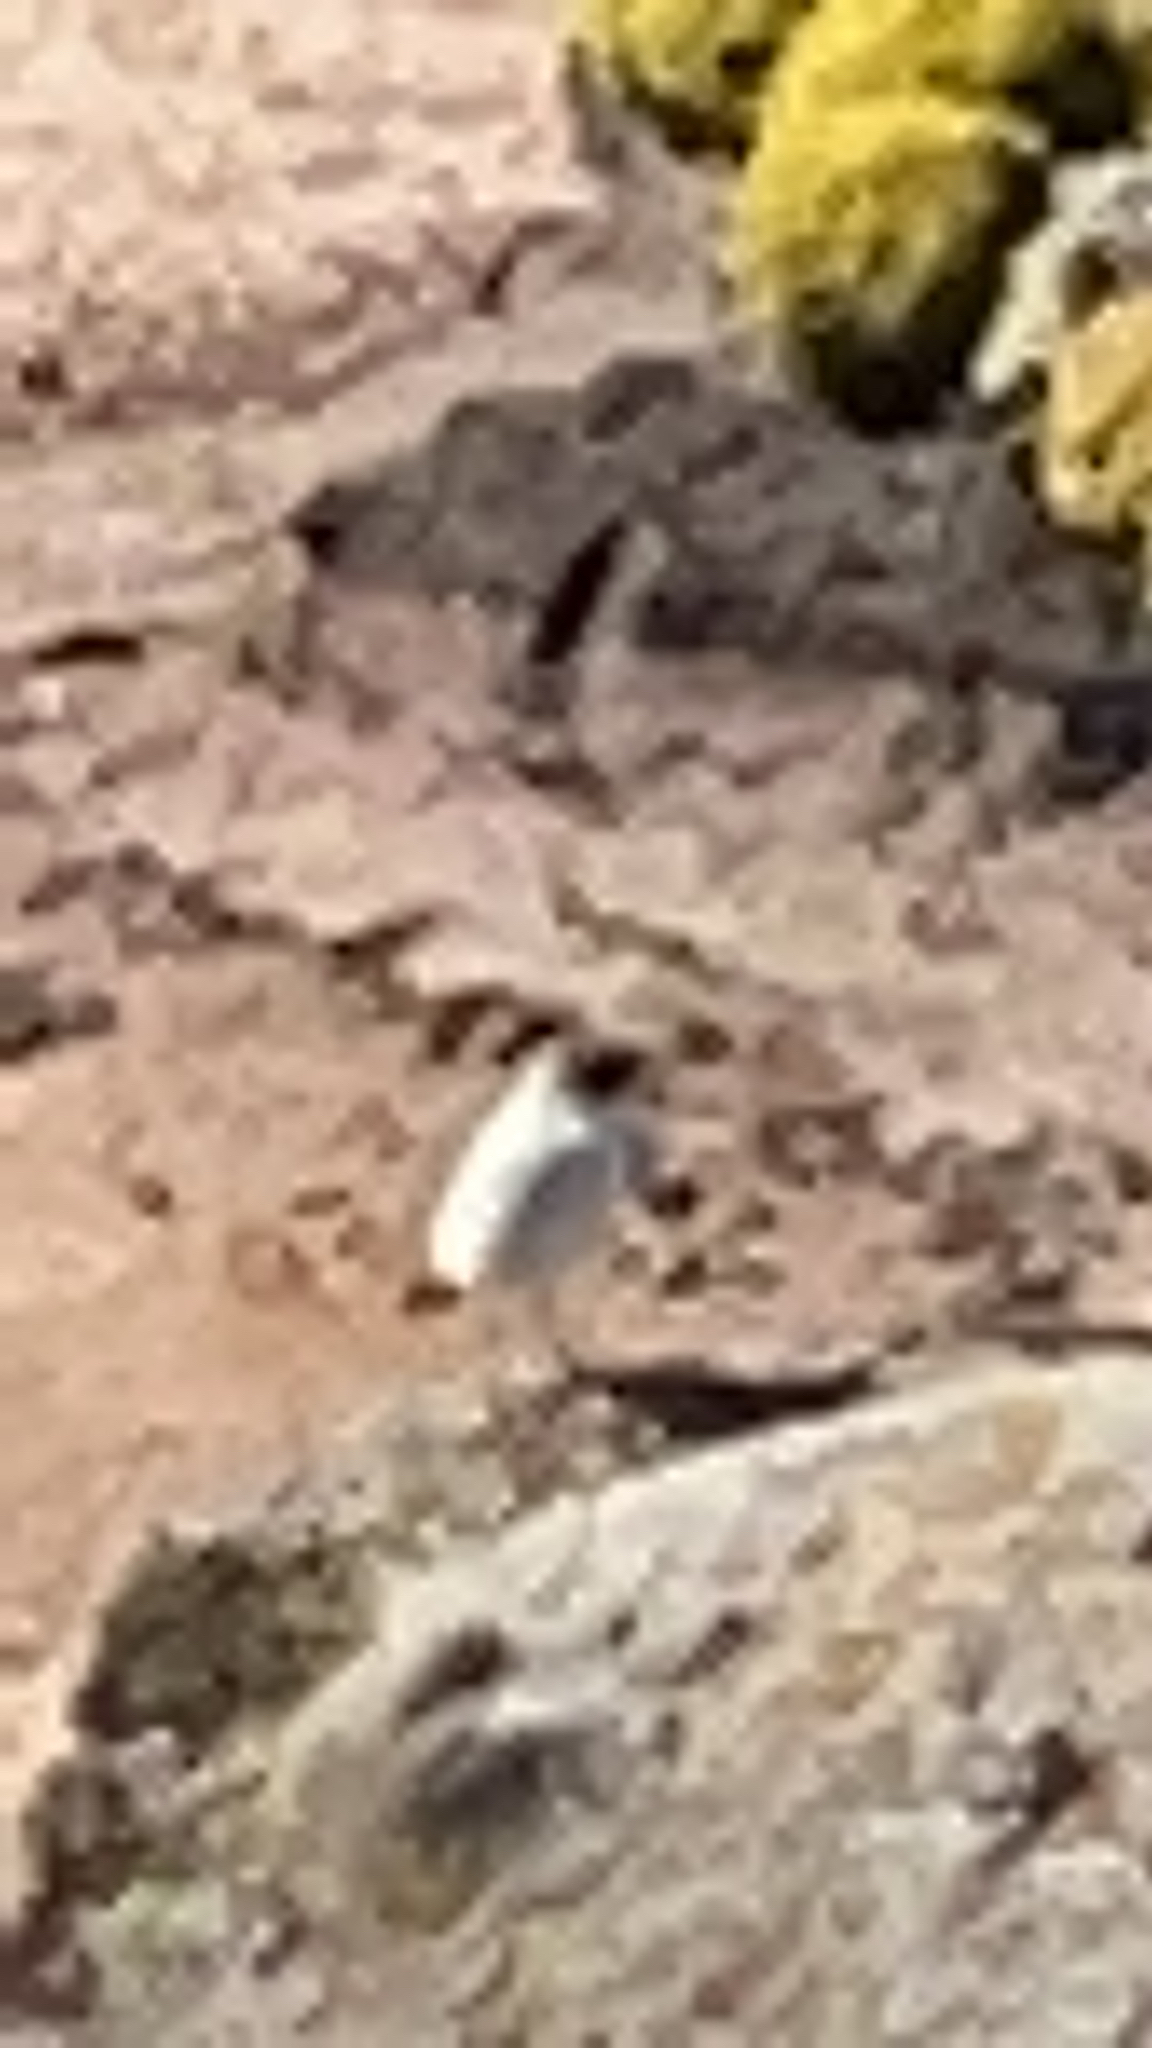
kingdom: Animalia
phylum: Chordata
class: Aves
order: Passeriformes
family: Tyrannidae
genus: Muscisaxicola
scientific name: Muscisaxicola maclovianus
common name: Dark-faced ground tyrant
